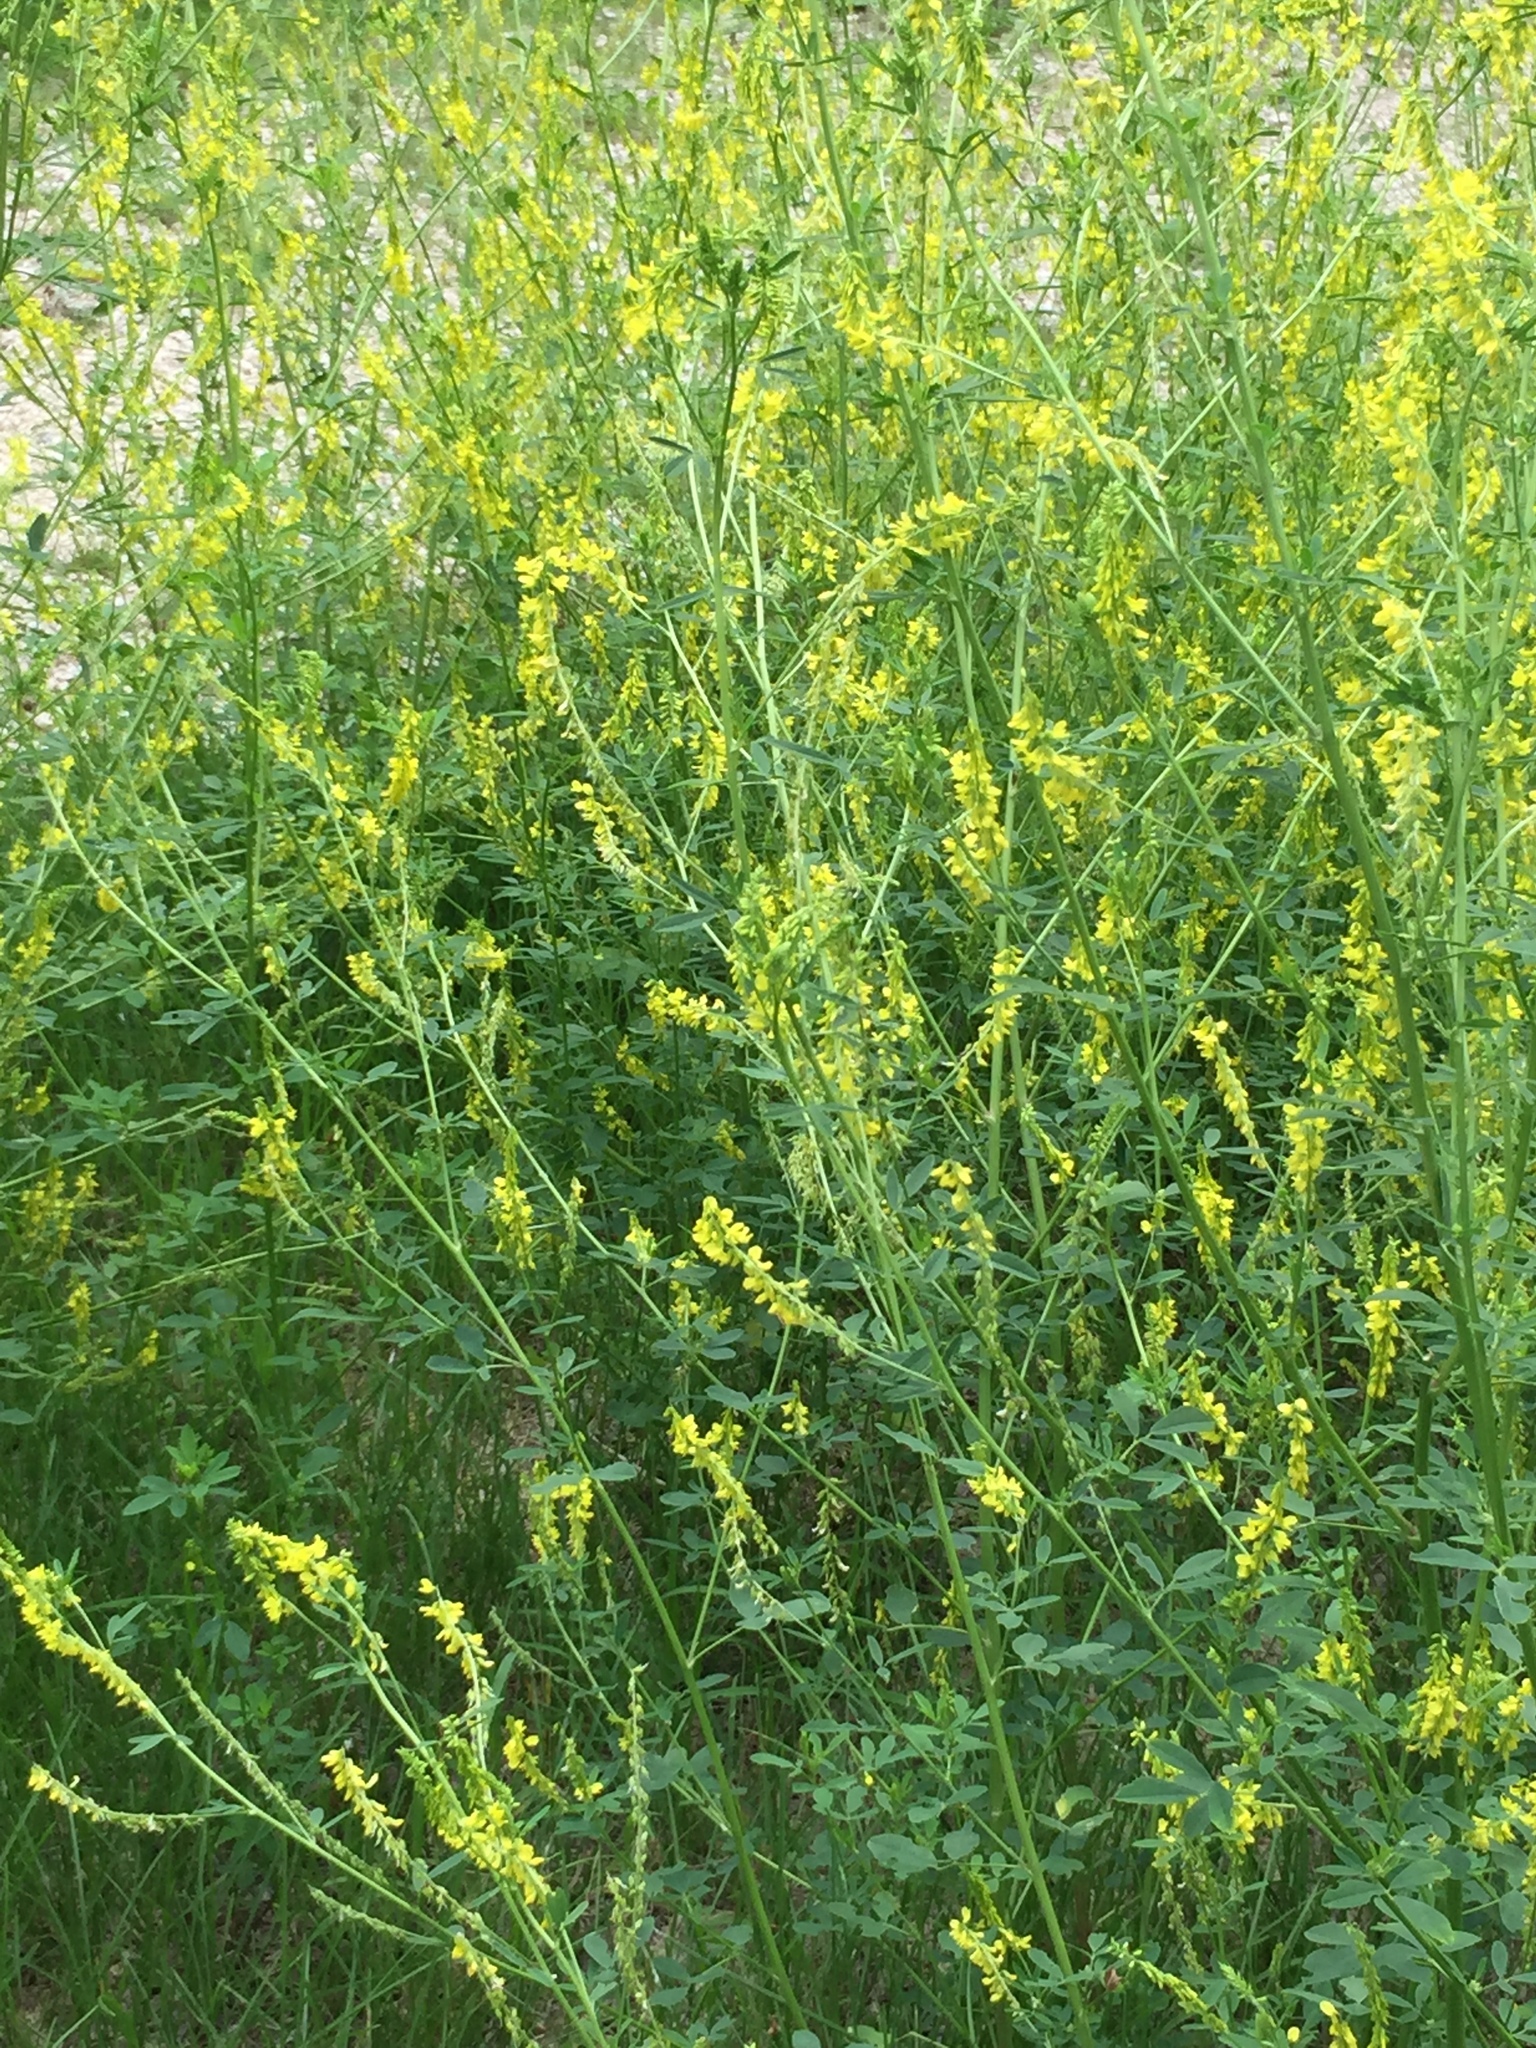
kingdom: Plantae
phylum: Tracheophyta
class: Magnoliopsida
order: Fabales
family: Fabaceae
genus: Melilotus
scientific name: Melilotus officinalis
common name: Sweetclover
